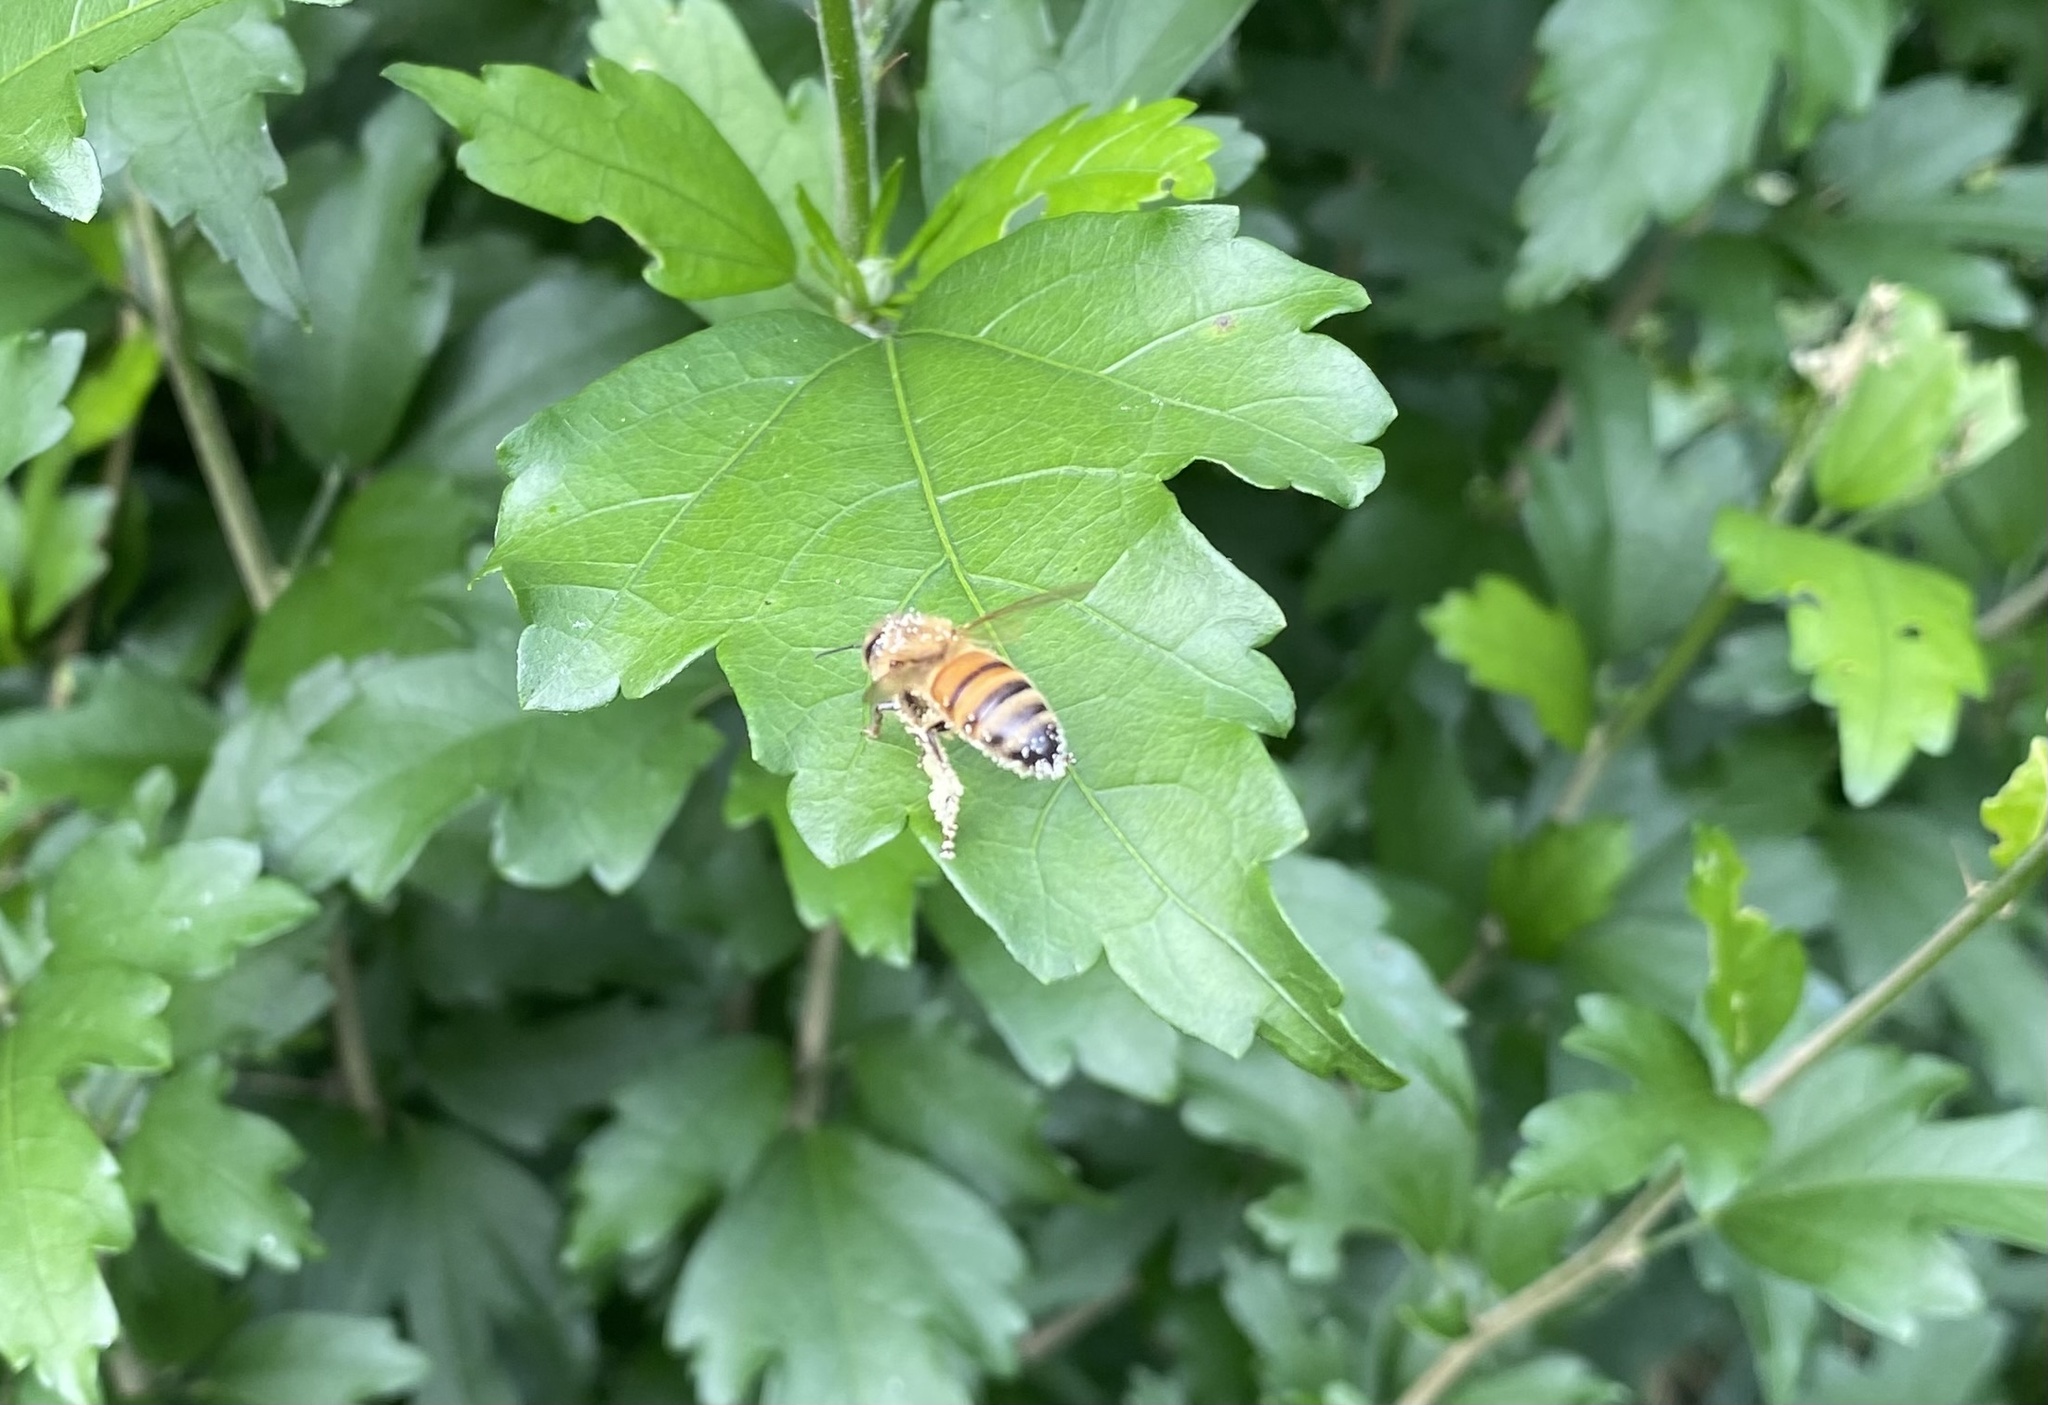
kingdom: Animalia
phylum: Arthropoda
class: Insecta
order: Hymenoptera
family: Apidae
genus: Apis
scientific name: Apis mellifera
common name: Honey bee
